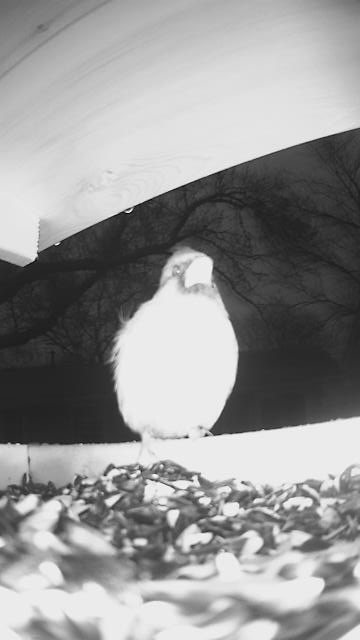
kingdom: Animalia
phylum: Chordata
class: Aves
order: Passeriformes
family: Cardinalidae
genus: Cardinalis
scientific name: Cardinalis cardinalis
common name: Northern cardinal
